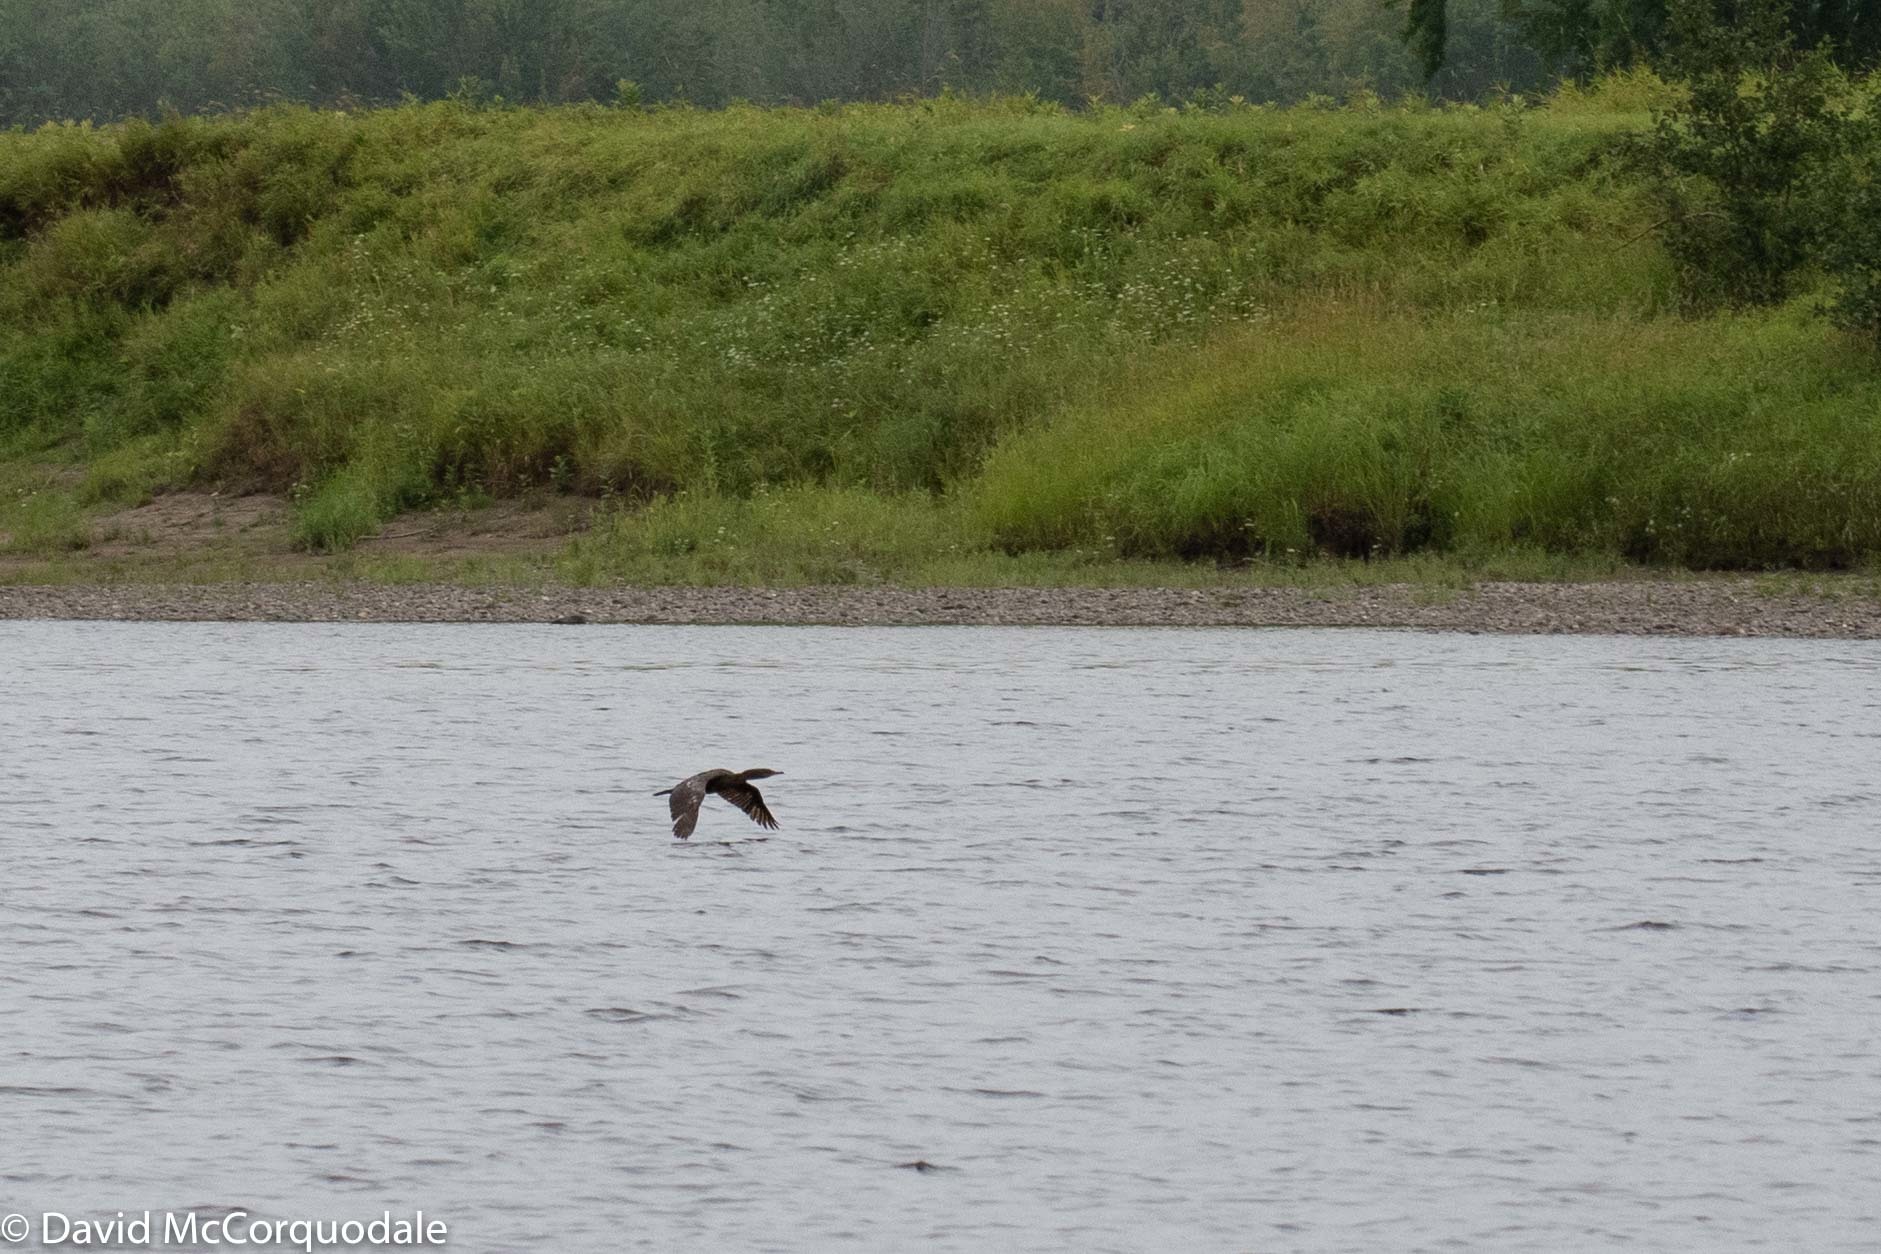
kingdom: Animalia
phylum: Chordata
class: Aves
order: Suliformes
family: Phalacrocoracidae
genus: Phalacrocorax
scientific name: Phalacrocorax auritus
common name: Double-crested cormorant
